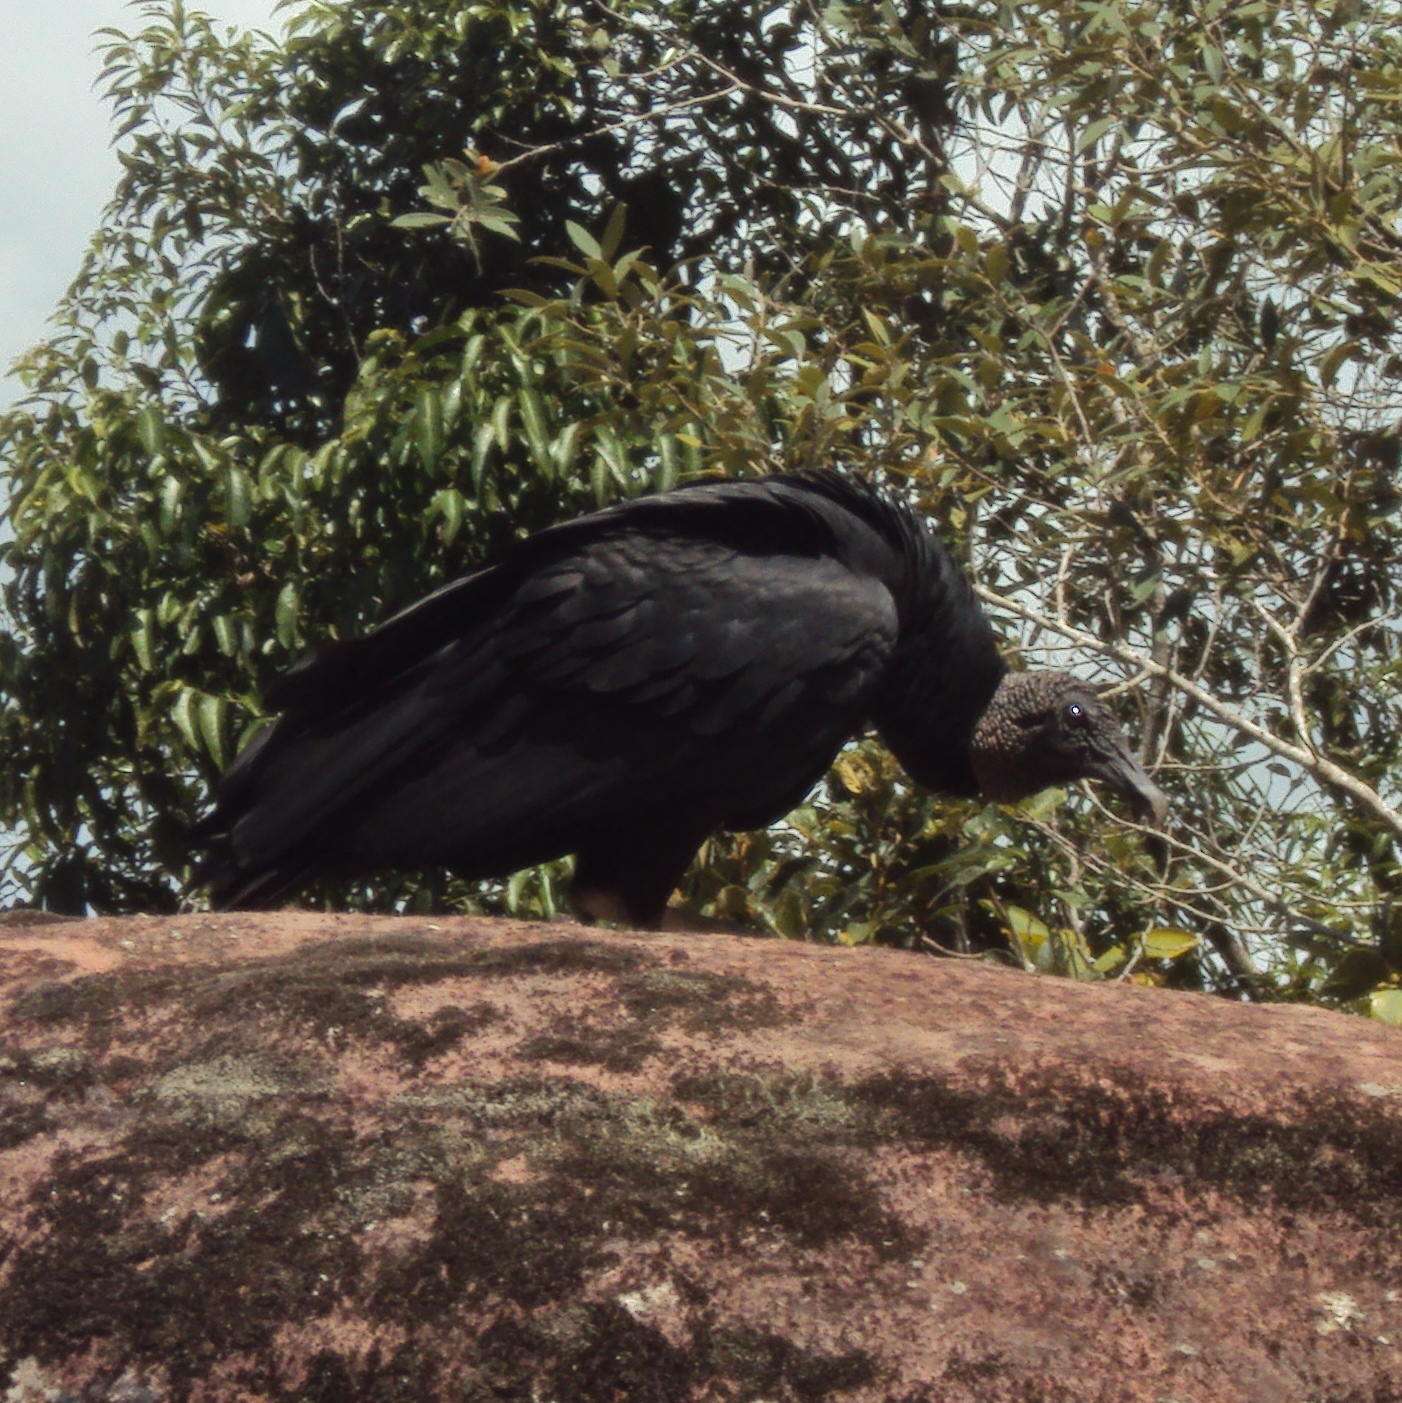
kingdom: Animalia
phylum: Chordata
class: Aves
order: Accipitriformes
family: Cathartidae
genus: Coragyps
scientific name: Coragyps atratus
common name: Black vulture
